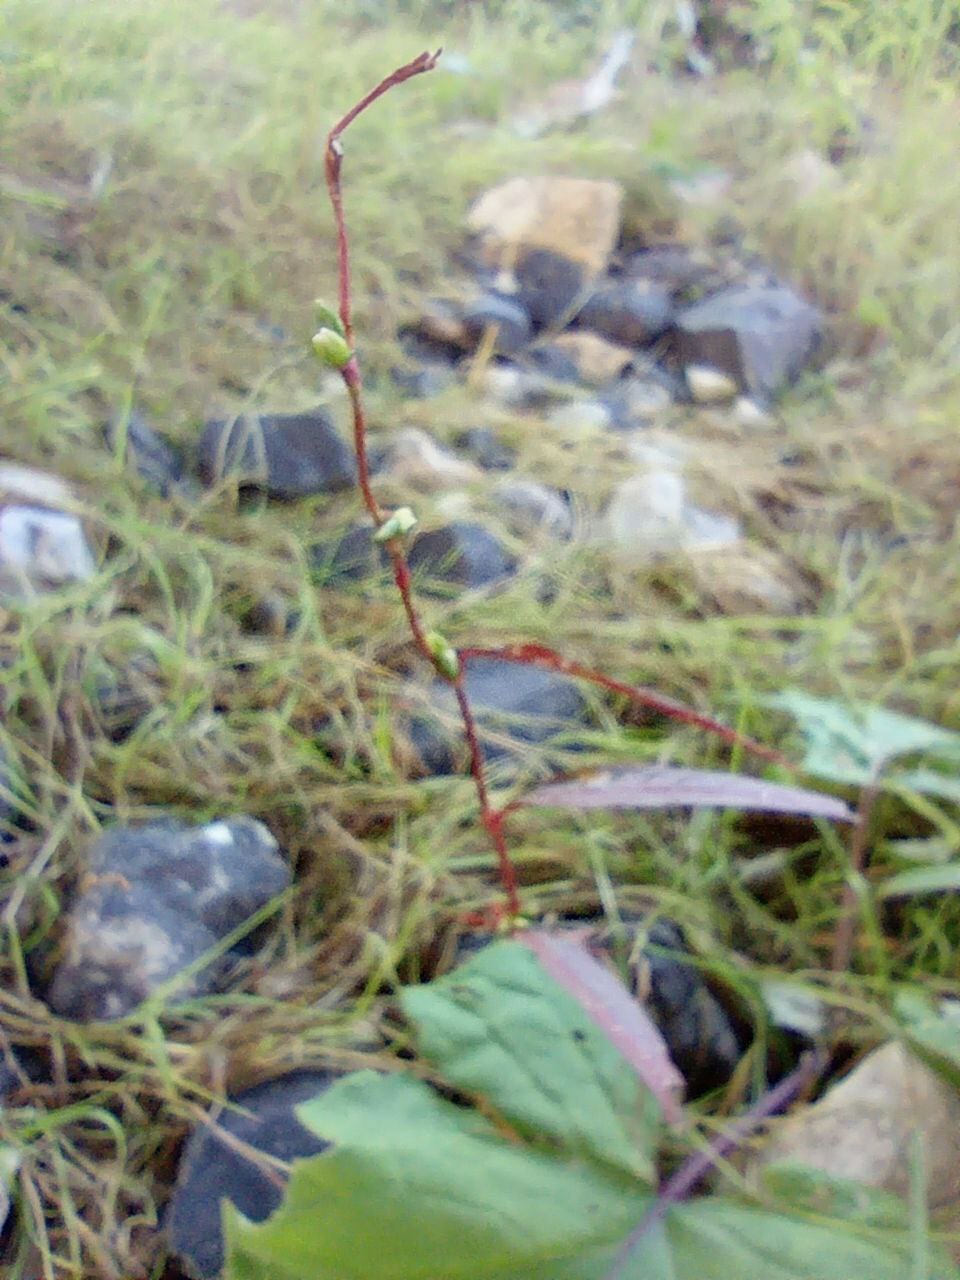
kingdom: Plantae
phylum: Tracheophyta
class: Magnoliopsida
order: Caryophyllales
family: Polygonaceae
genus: Persicaria
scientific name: Persicaria hydropiper
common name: Water-pepper
